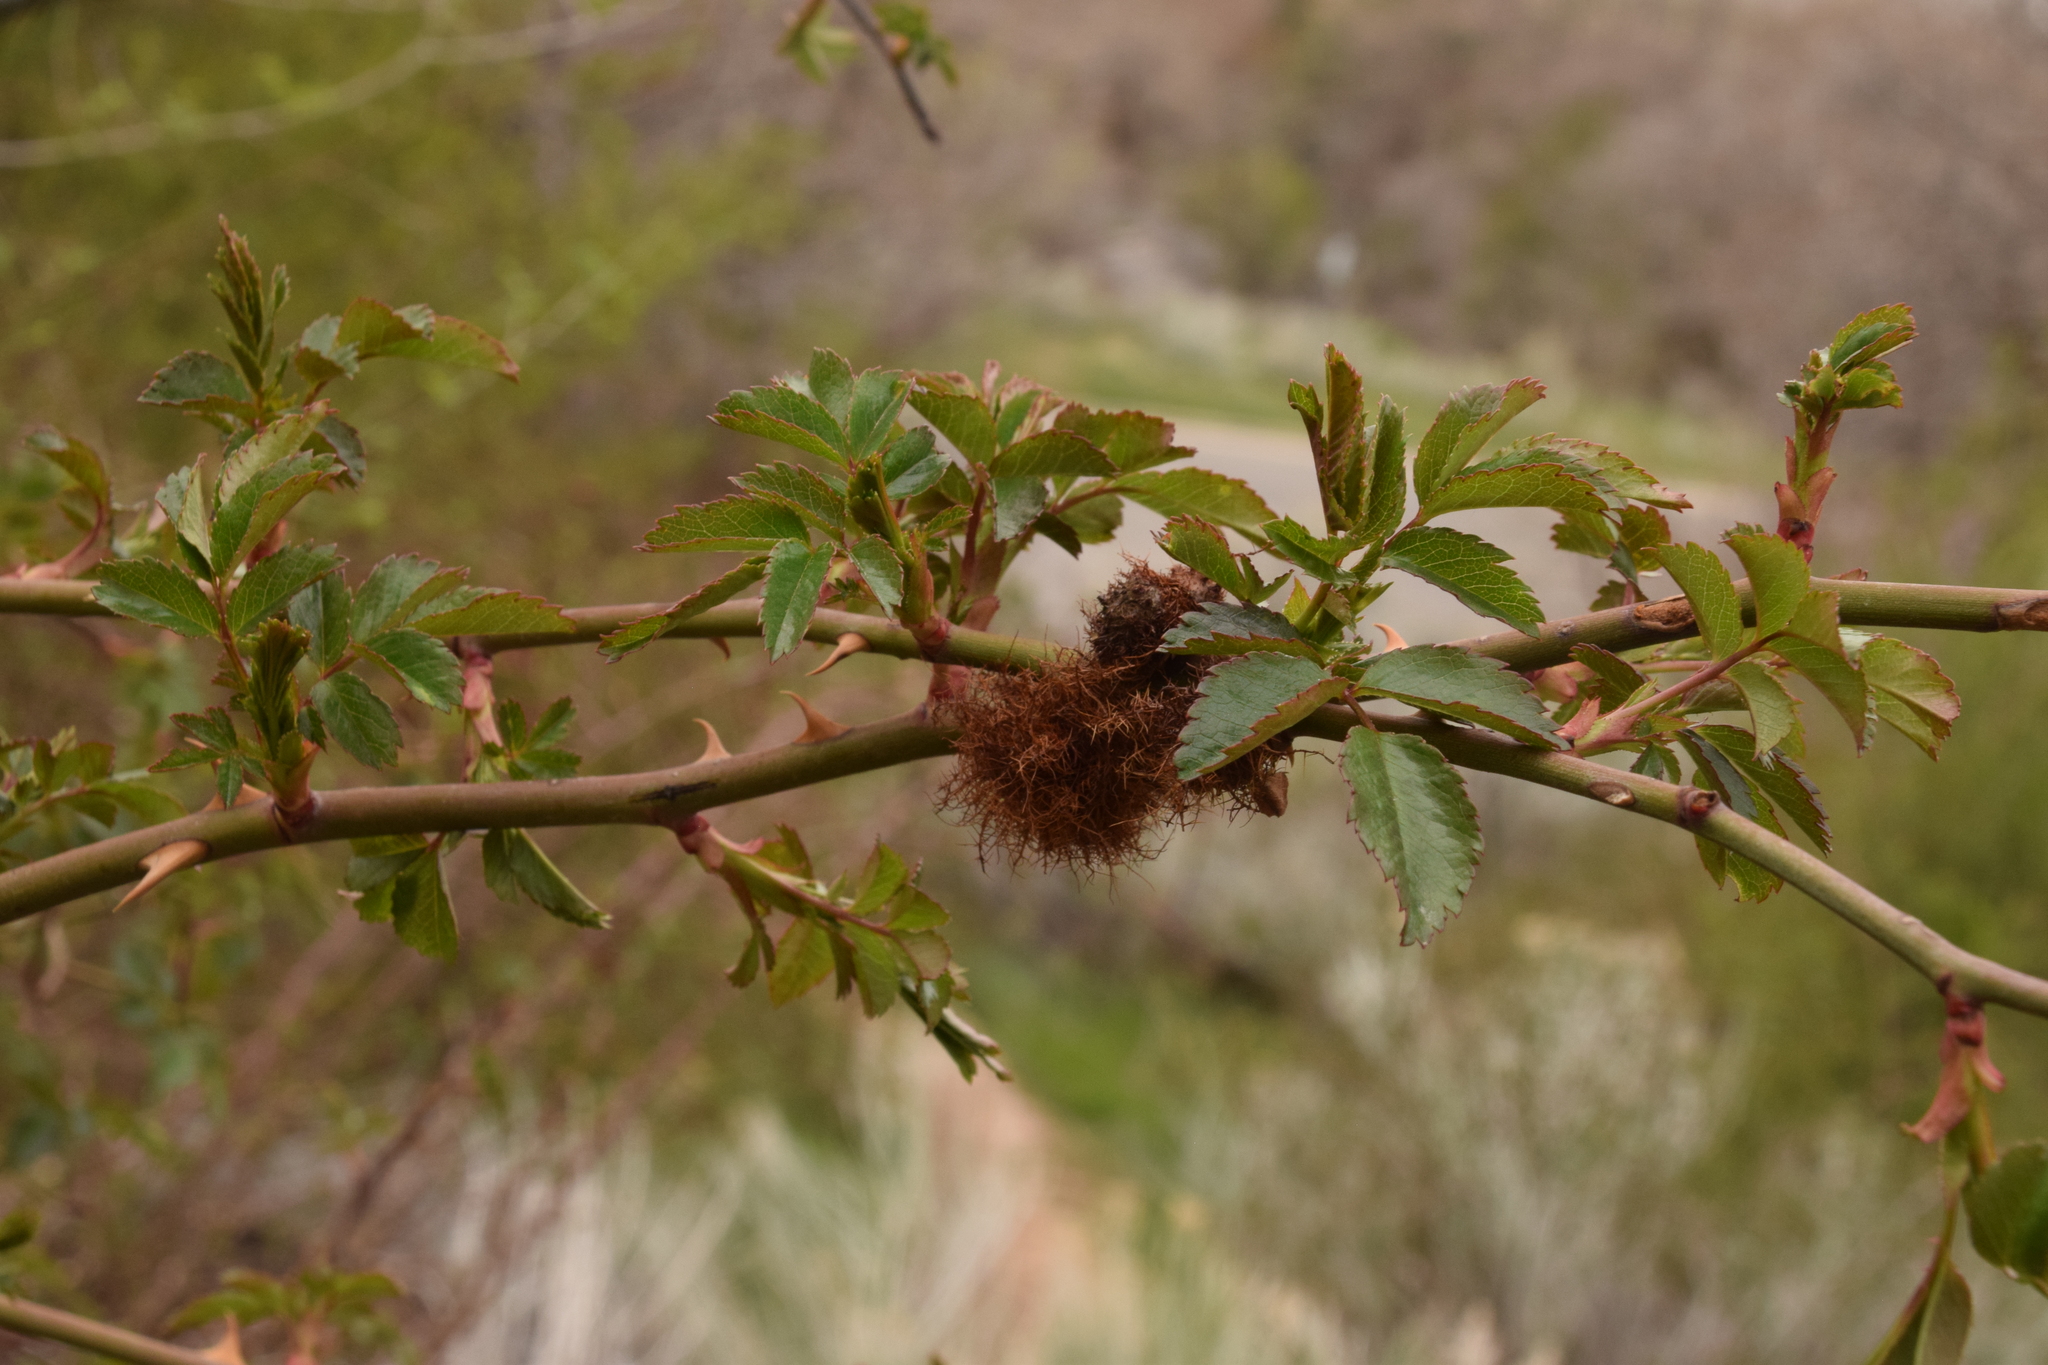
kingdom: Animalia
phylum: Arthropoda
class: Insecta
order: Hymenoptera
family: Cynipidae
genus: Diplolepis
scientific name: Diplolepis rosae
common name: Bedeguar gall
